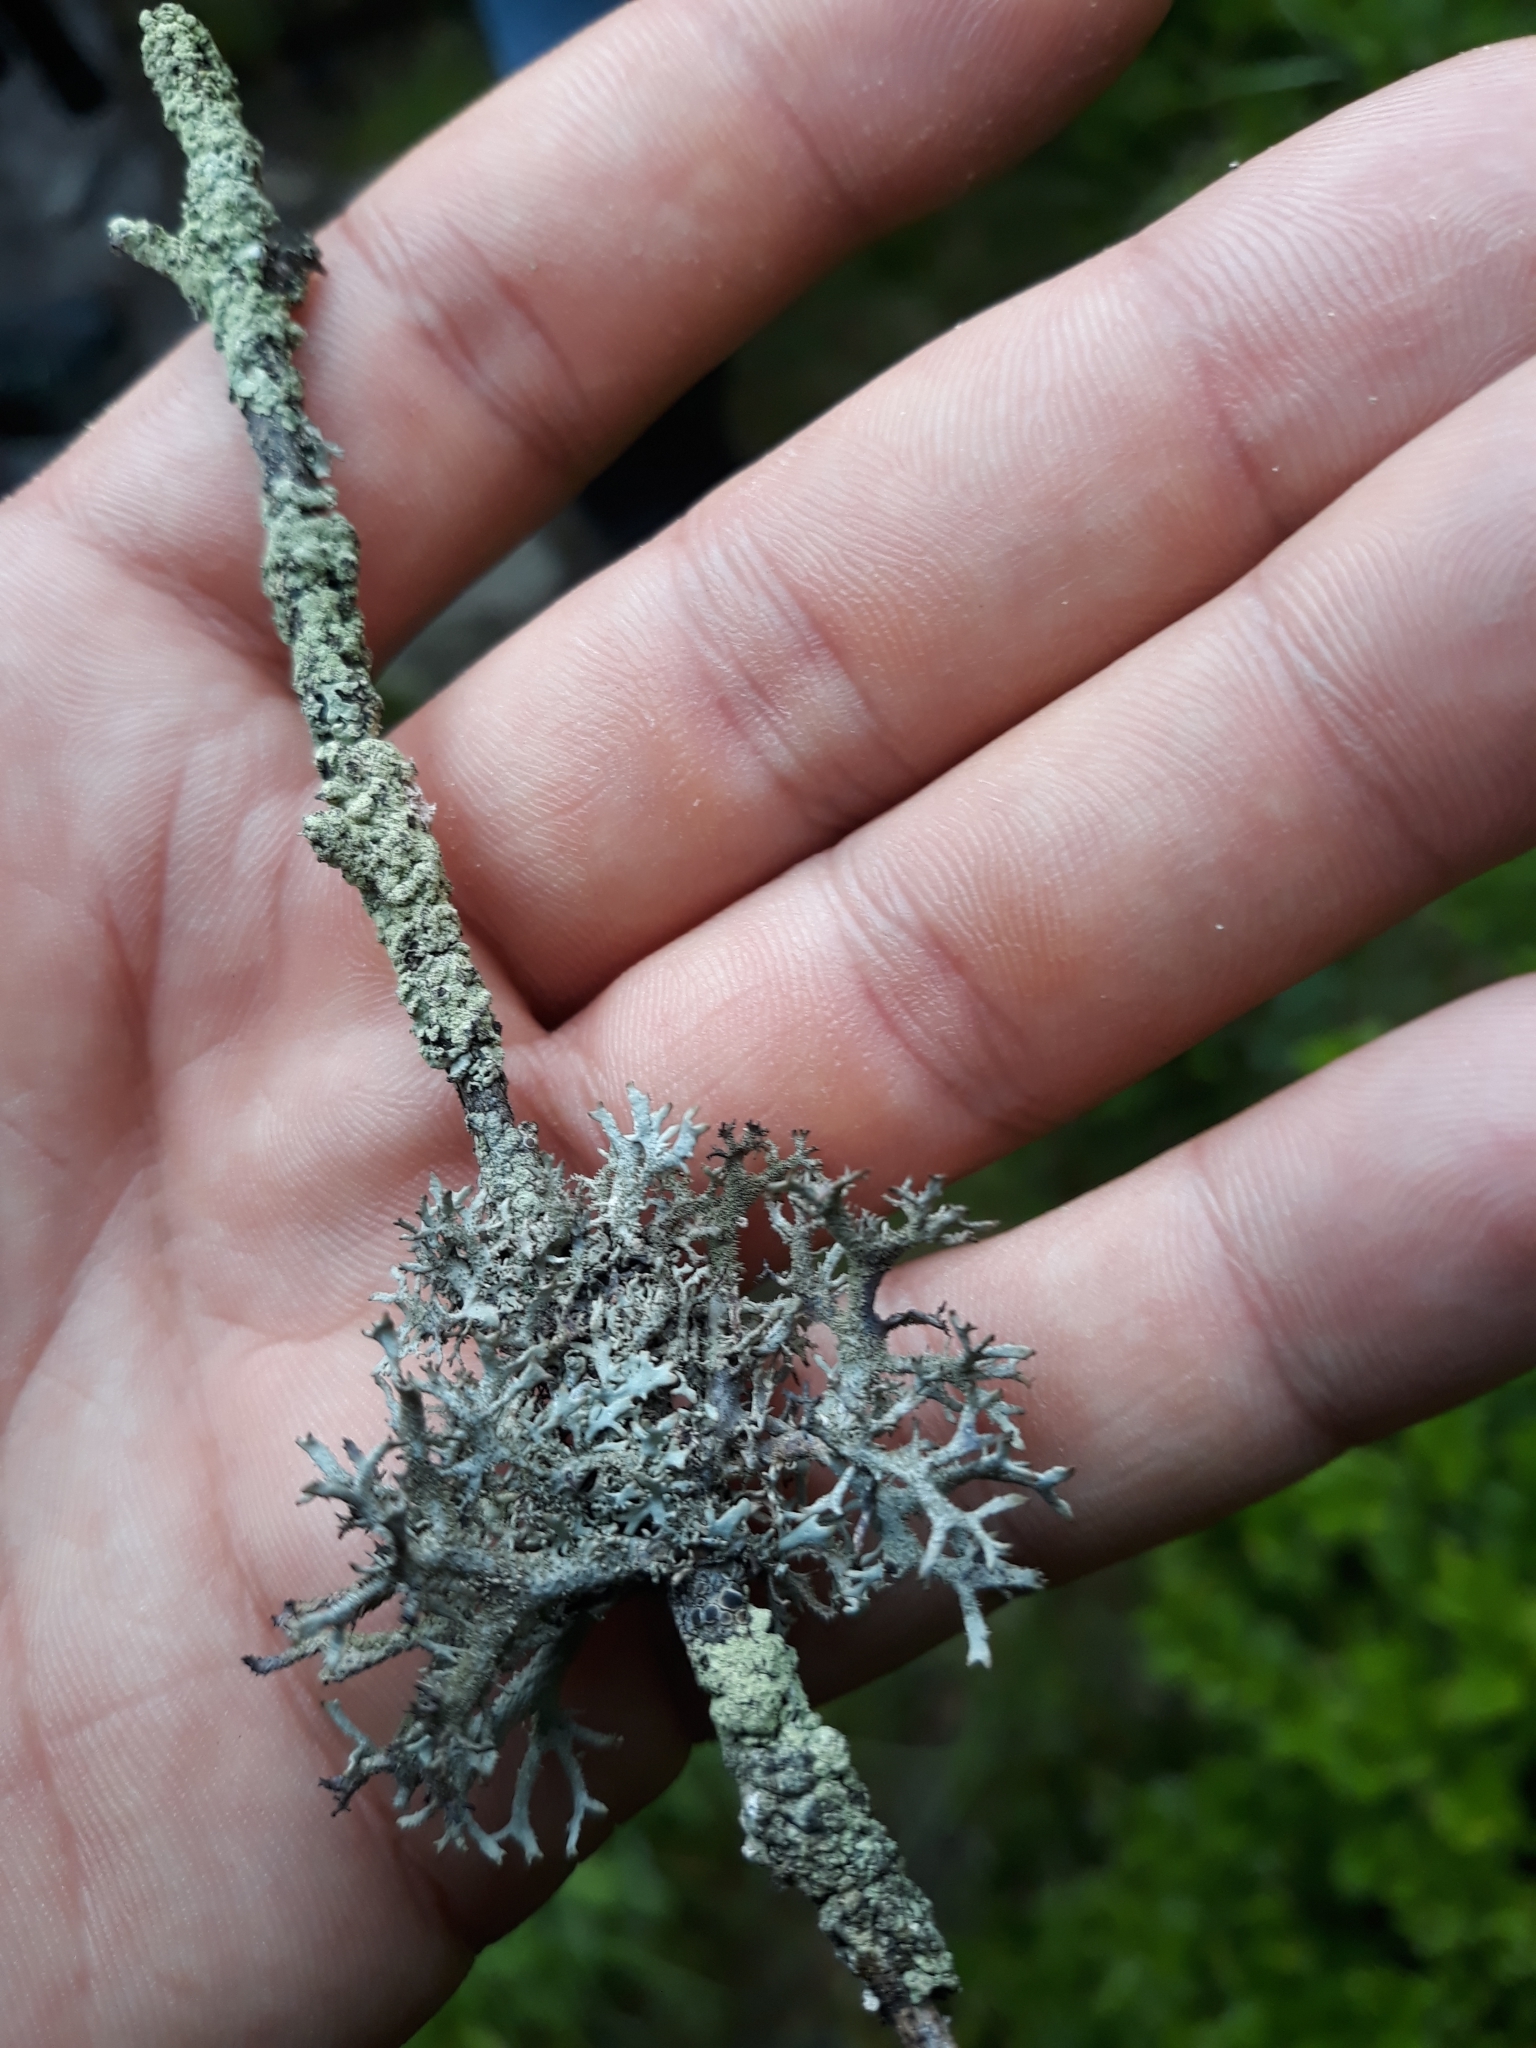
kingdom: Fungi
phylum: Ascomycota
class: Lecanoromycetes
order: Lecanorales
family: Parmeliaceae
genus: Pseudevernia
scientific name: Pseudevernia furfuracea
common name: Tree moss
